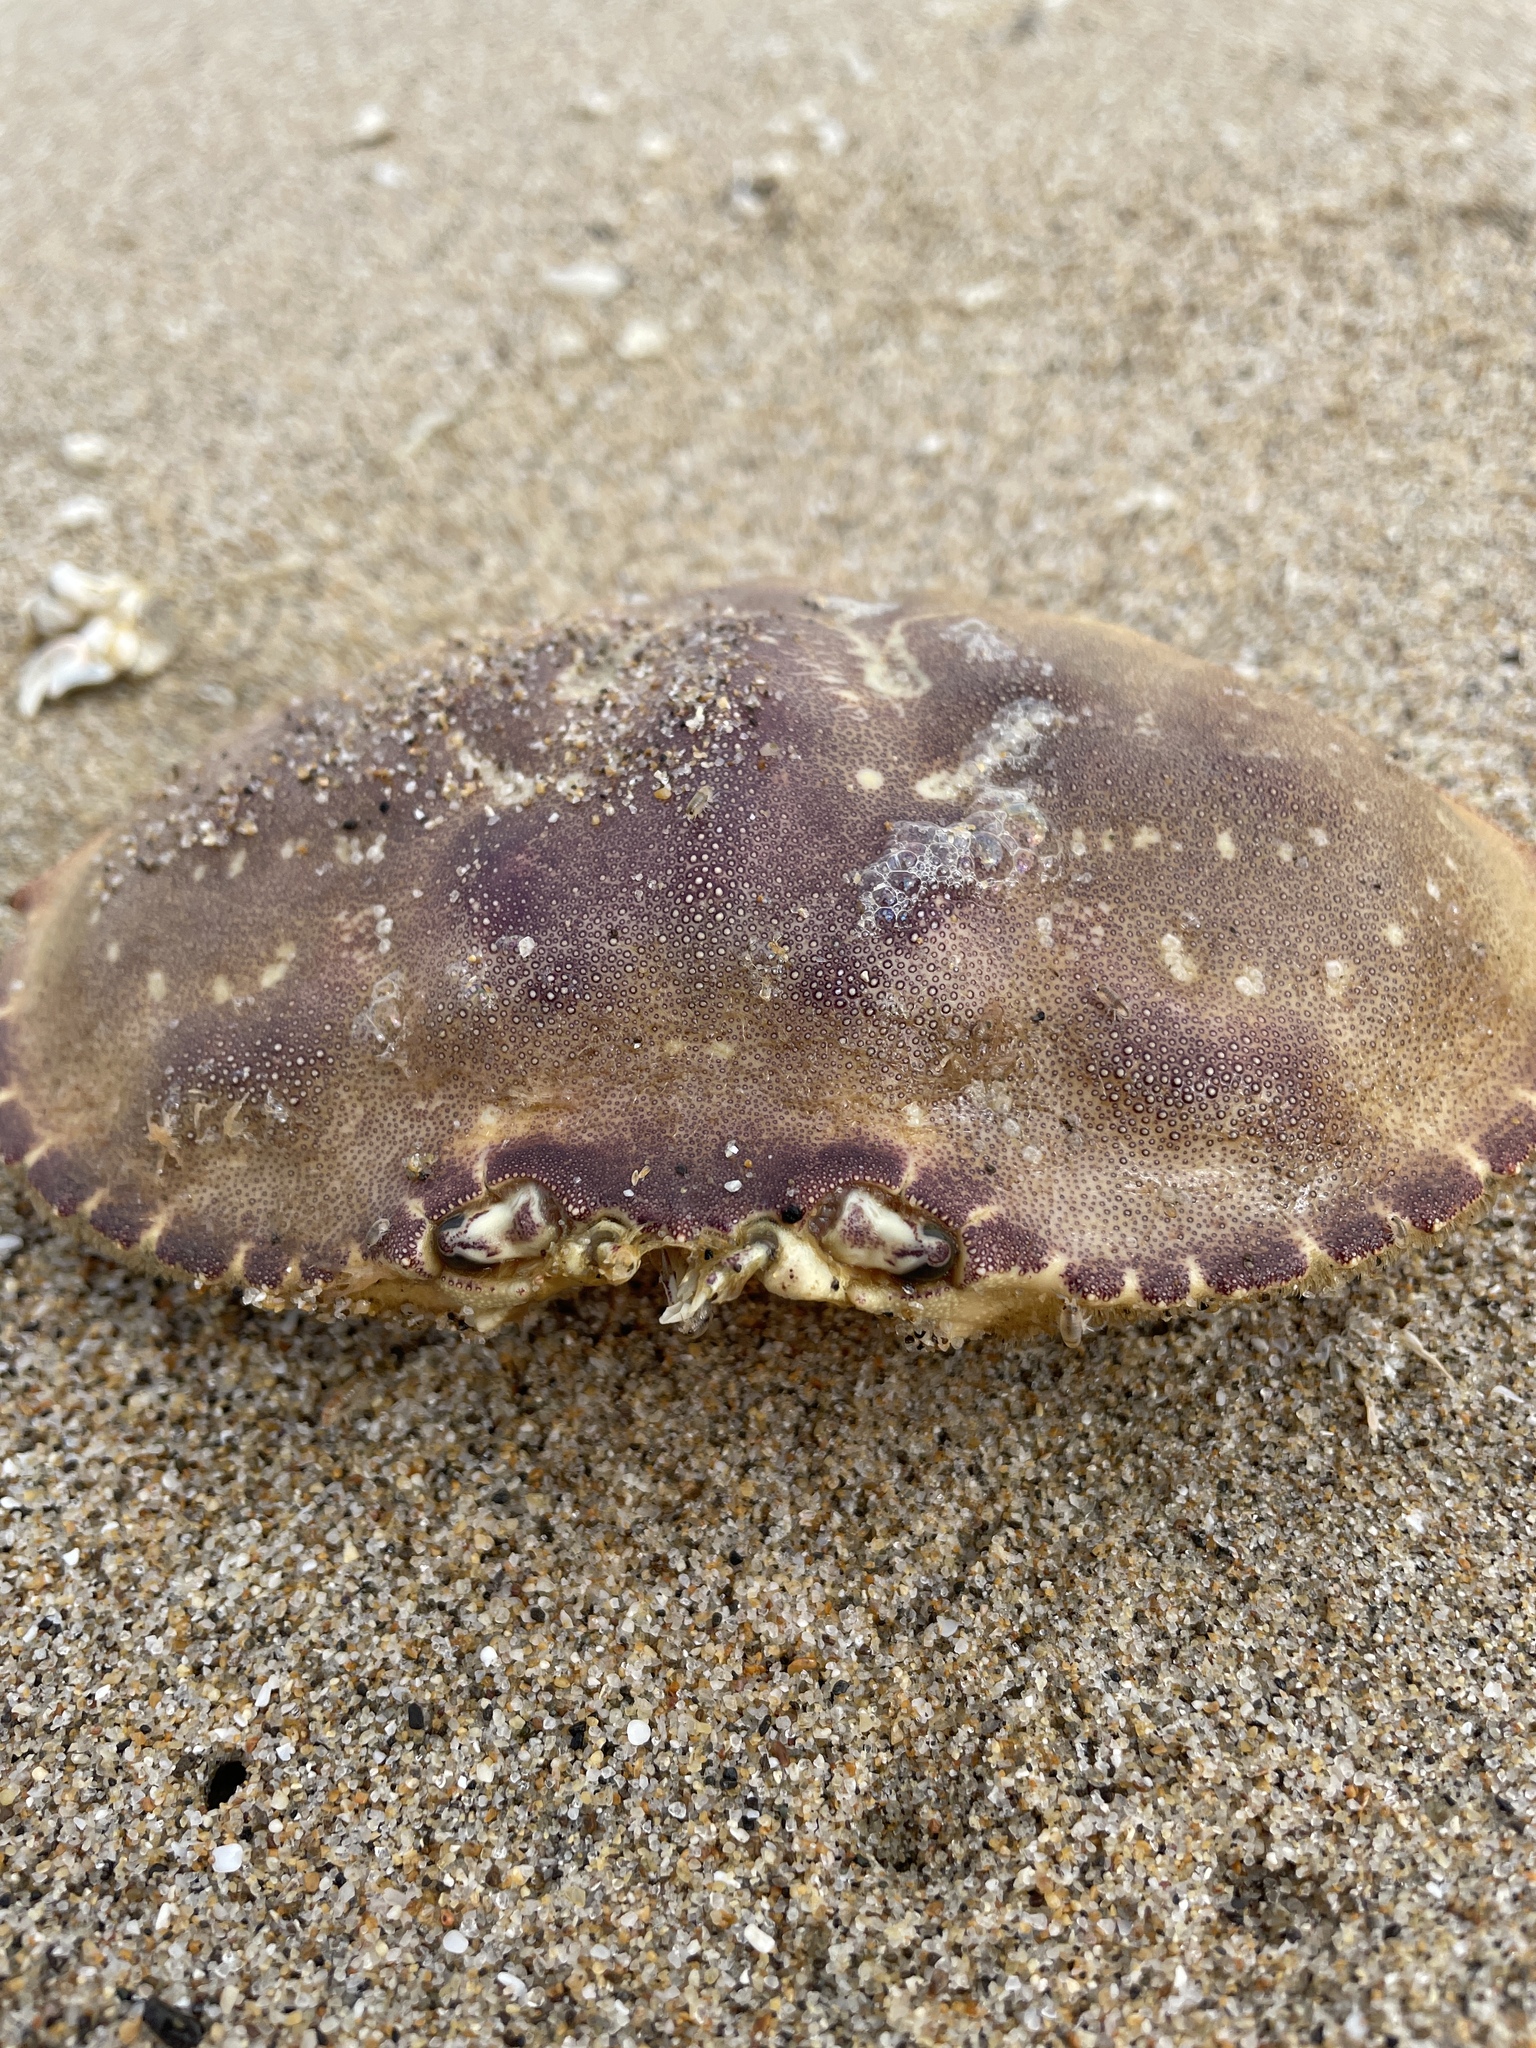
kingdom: Animalia
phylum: Arthropoda
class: Malacostraca
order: Decapoda
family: Cancridae
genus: Metacarcinus
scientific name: Metacarcinus magister
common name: Californian crab
